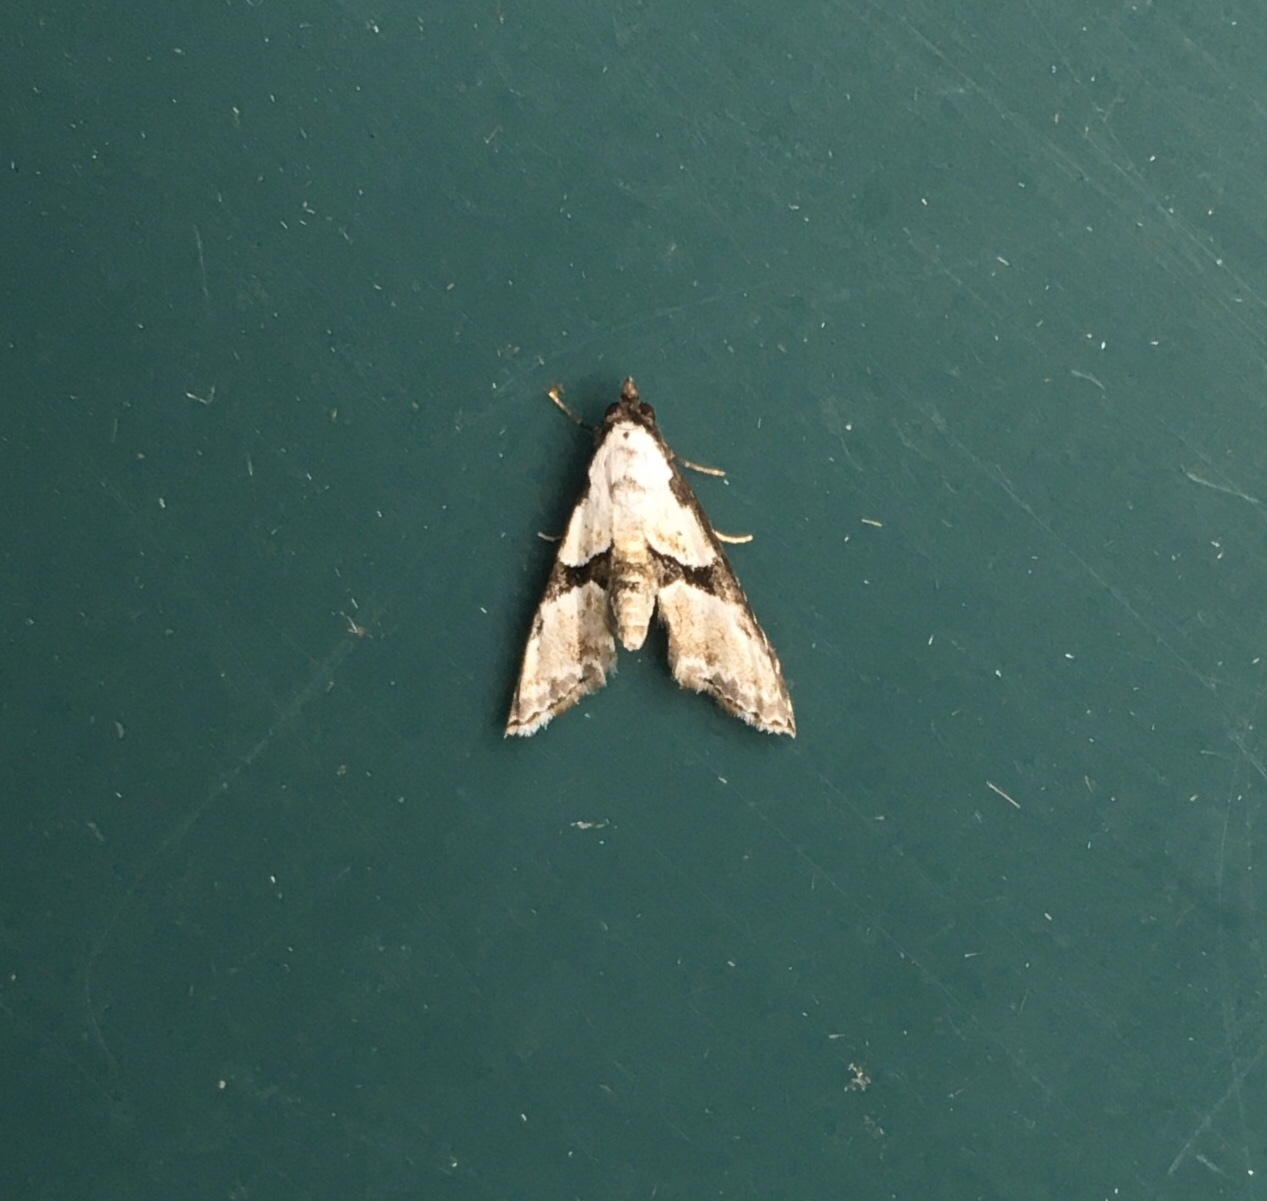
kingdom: Animalia
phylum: Arthropoda
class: Insecta
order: Lepidoptera
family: Noctuidae
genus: Nigetia
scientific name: Nigetia formosalis
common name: Thin-winged owlet
